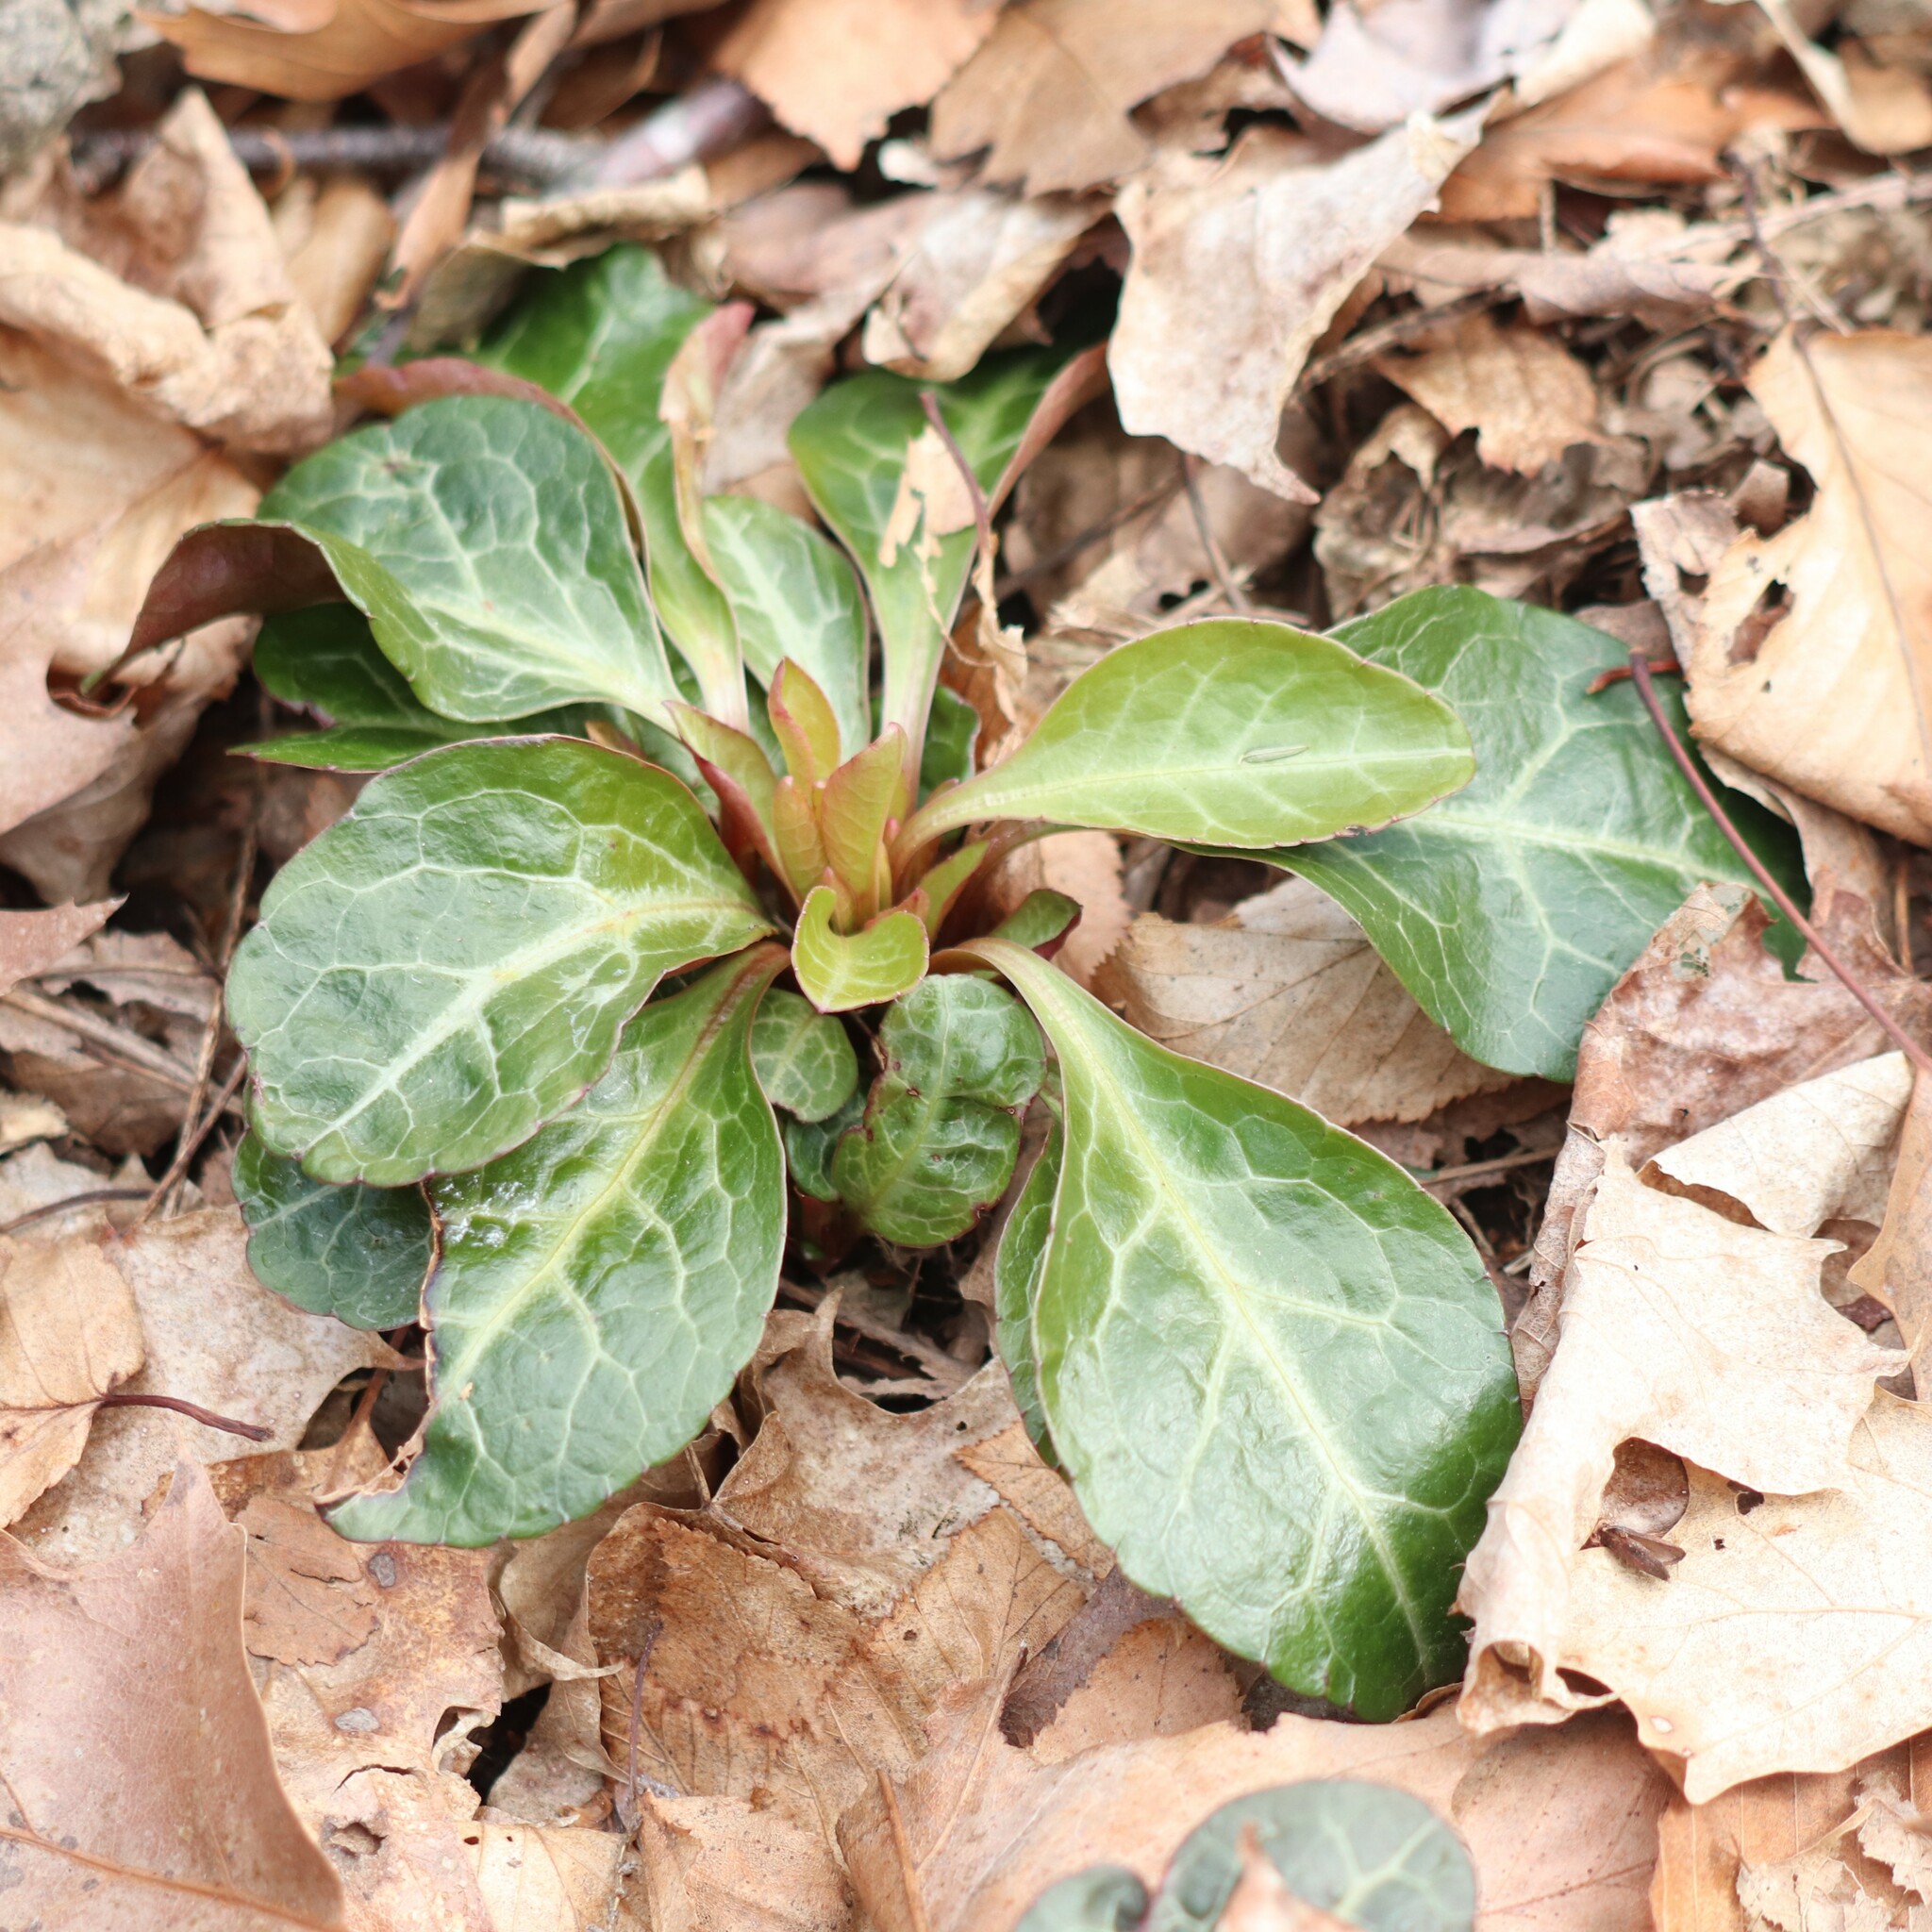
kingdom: Plantae
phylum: Tracheophyta
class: Magnoliopsida
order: Ericales
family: Ericaceae
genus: Pyrola
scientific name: Pyrola americana
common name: American wintergreen
